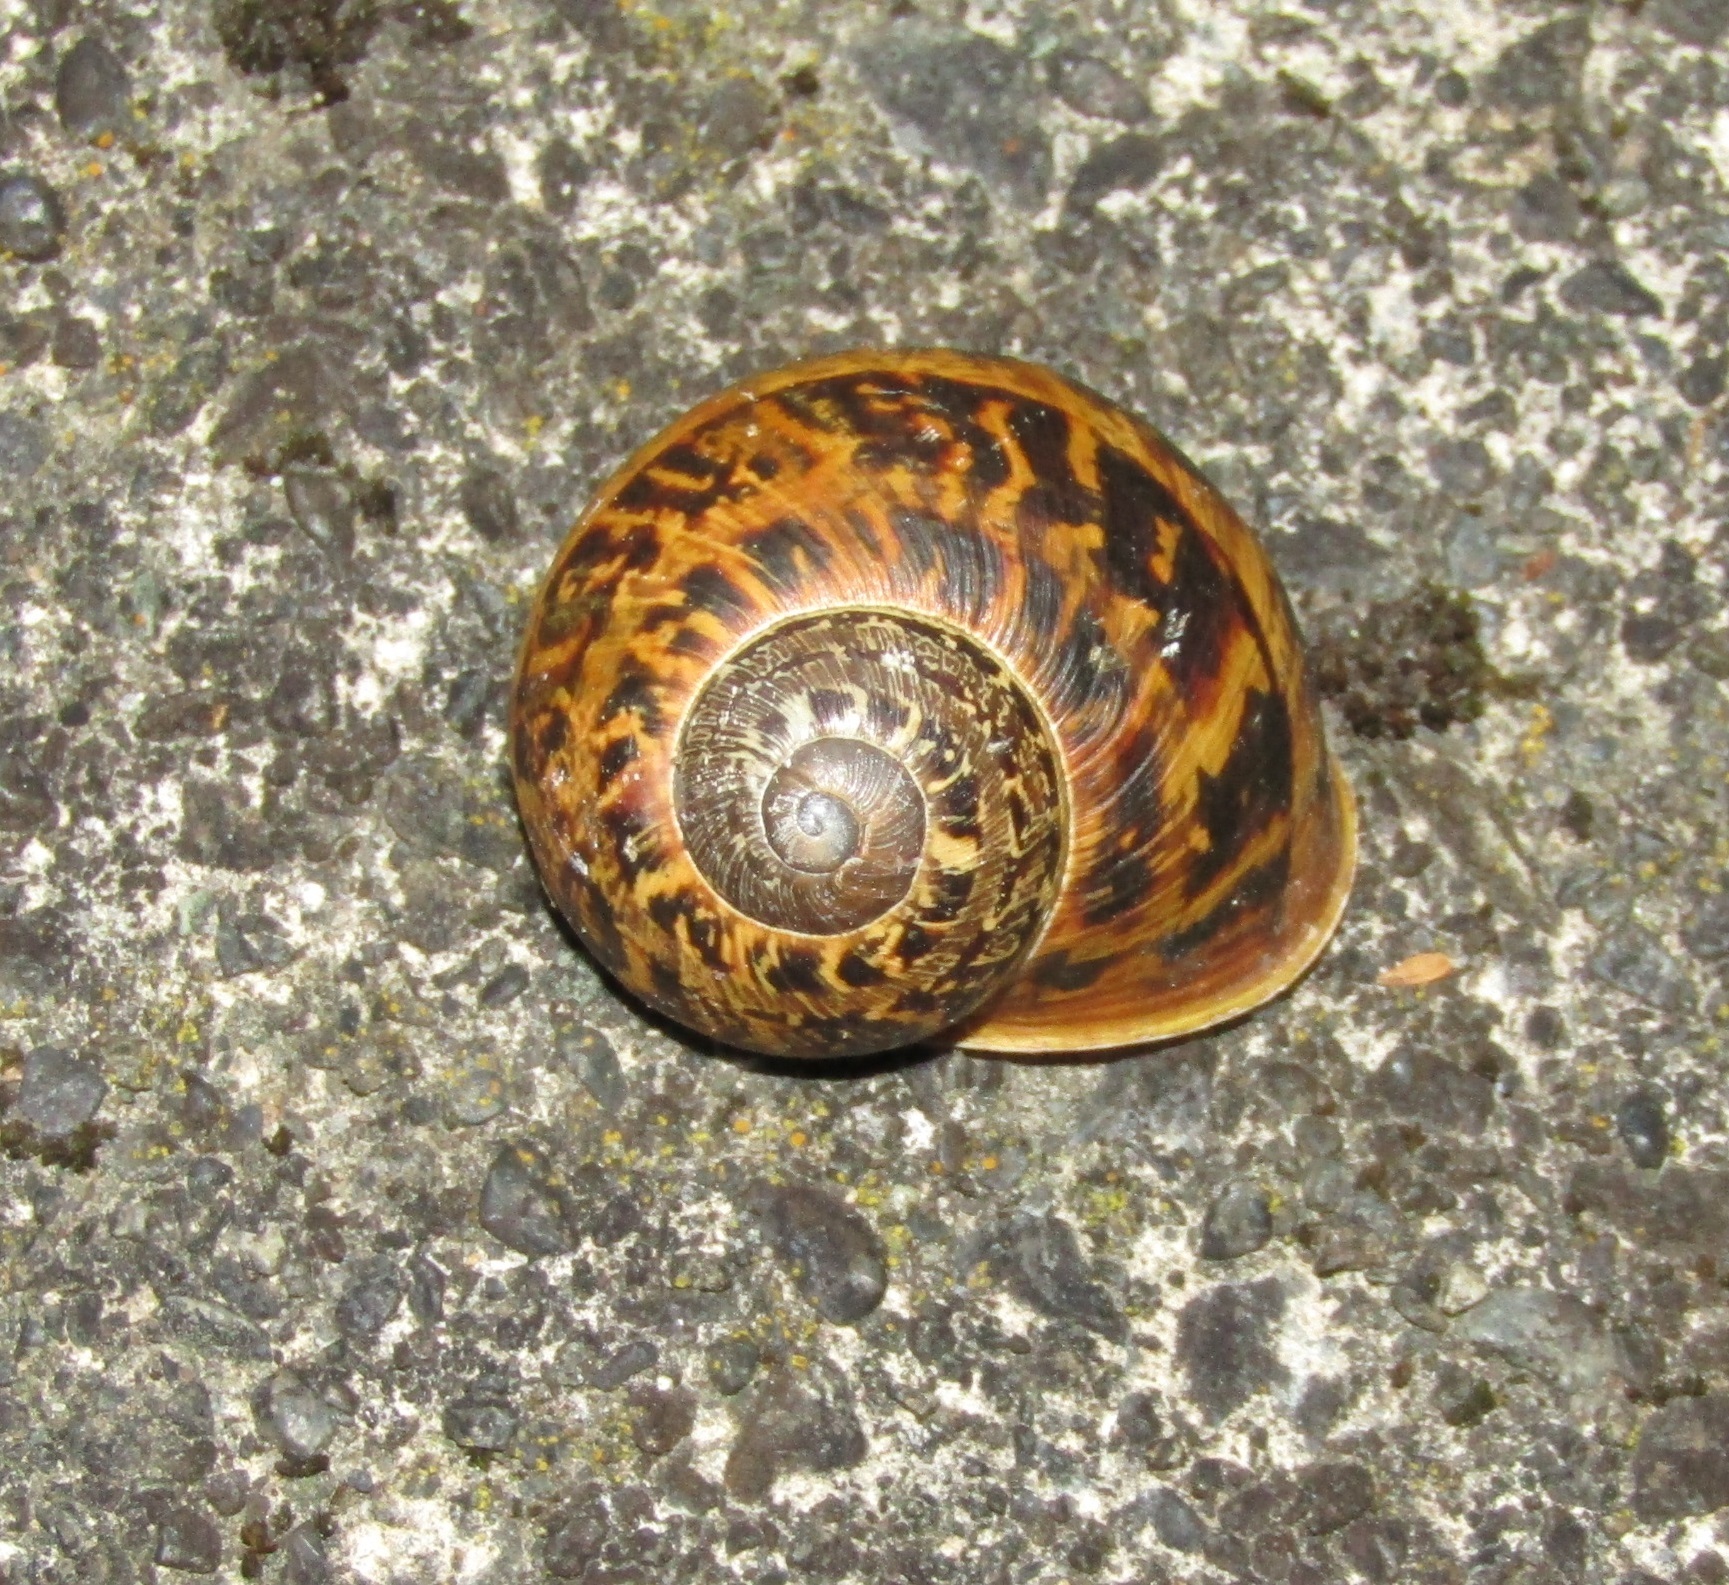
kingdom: Animalia
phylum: Mollusca
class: Gastropoda
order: Stylommatophora
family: Helicidae
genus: Cornu
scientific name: Cornu aspersum
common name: Brown garden snail
